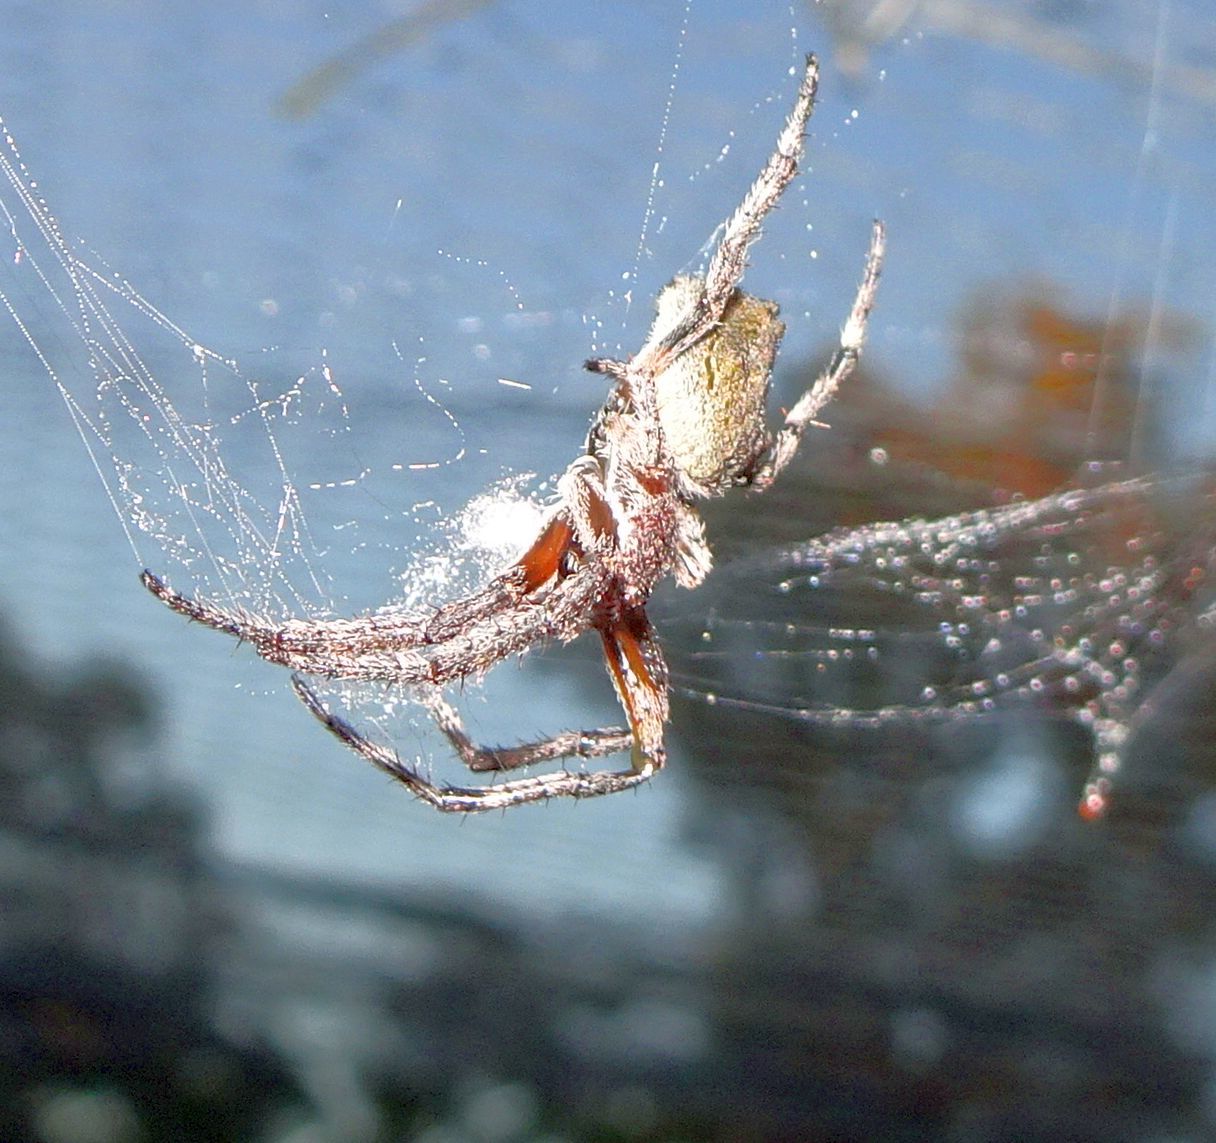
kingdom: Animalia
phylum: Arthropoda
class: Arachnida
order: Araneae
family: Araneidae
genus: Eriophora
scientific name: Eriophora pustulosa
